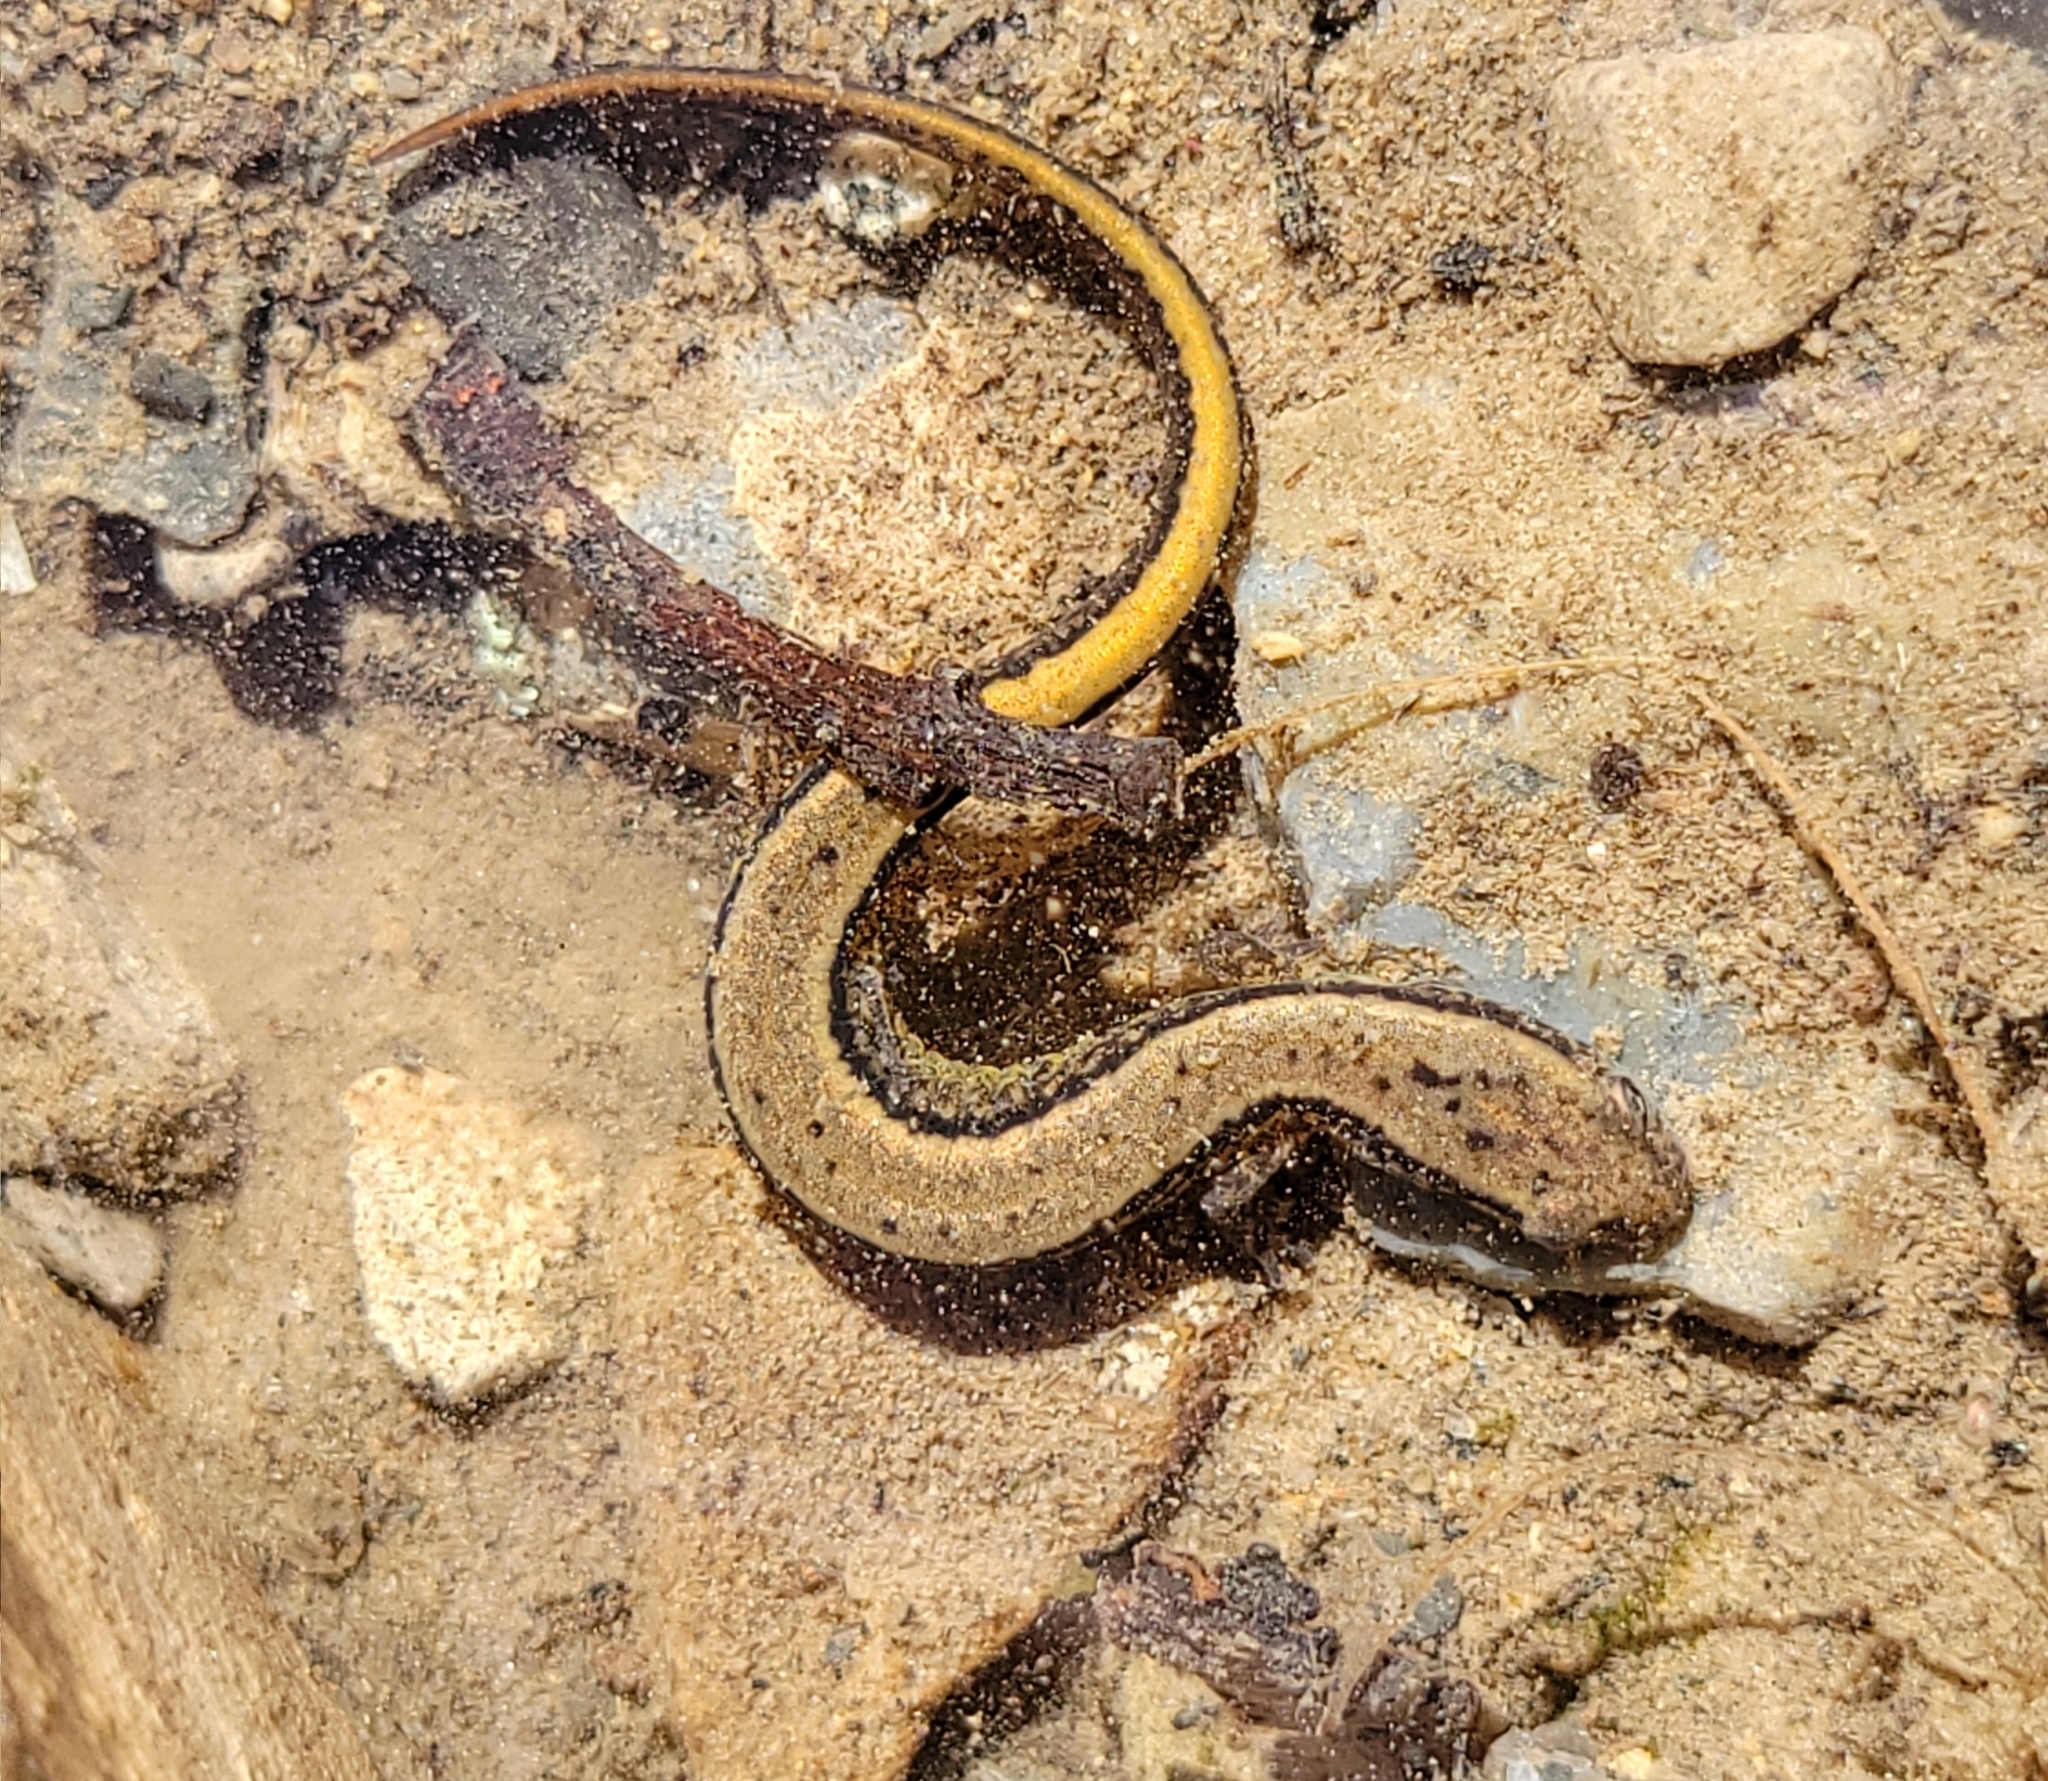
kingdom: Animalia
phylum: Chordata
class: Amphibia
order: Caudata
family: Plethodontidae
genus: Eurycea
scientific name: Eurycea bislineata
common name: Northern two-lined salamander
